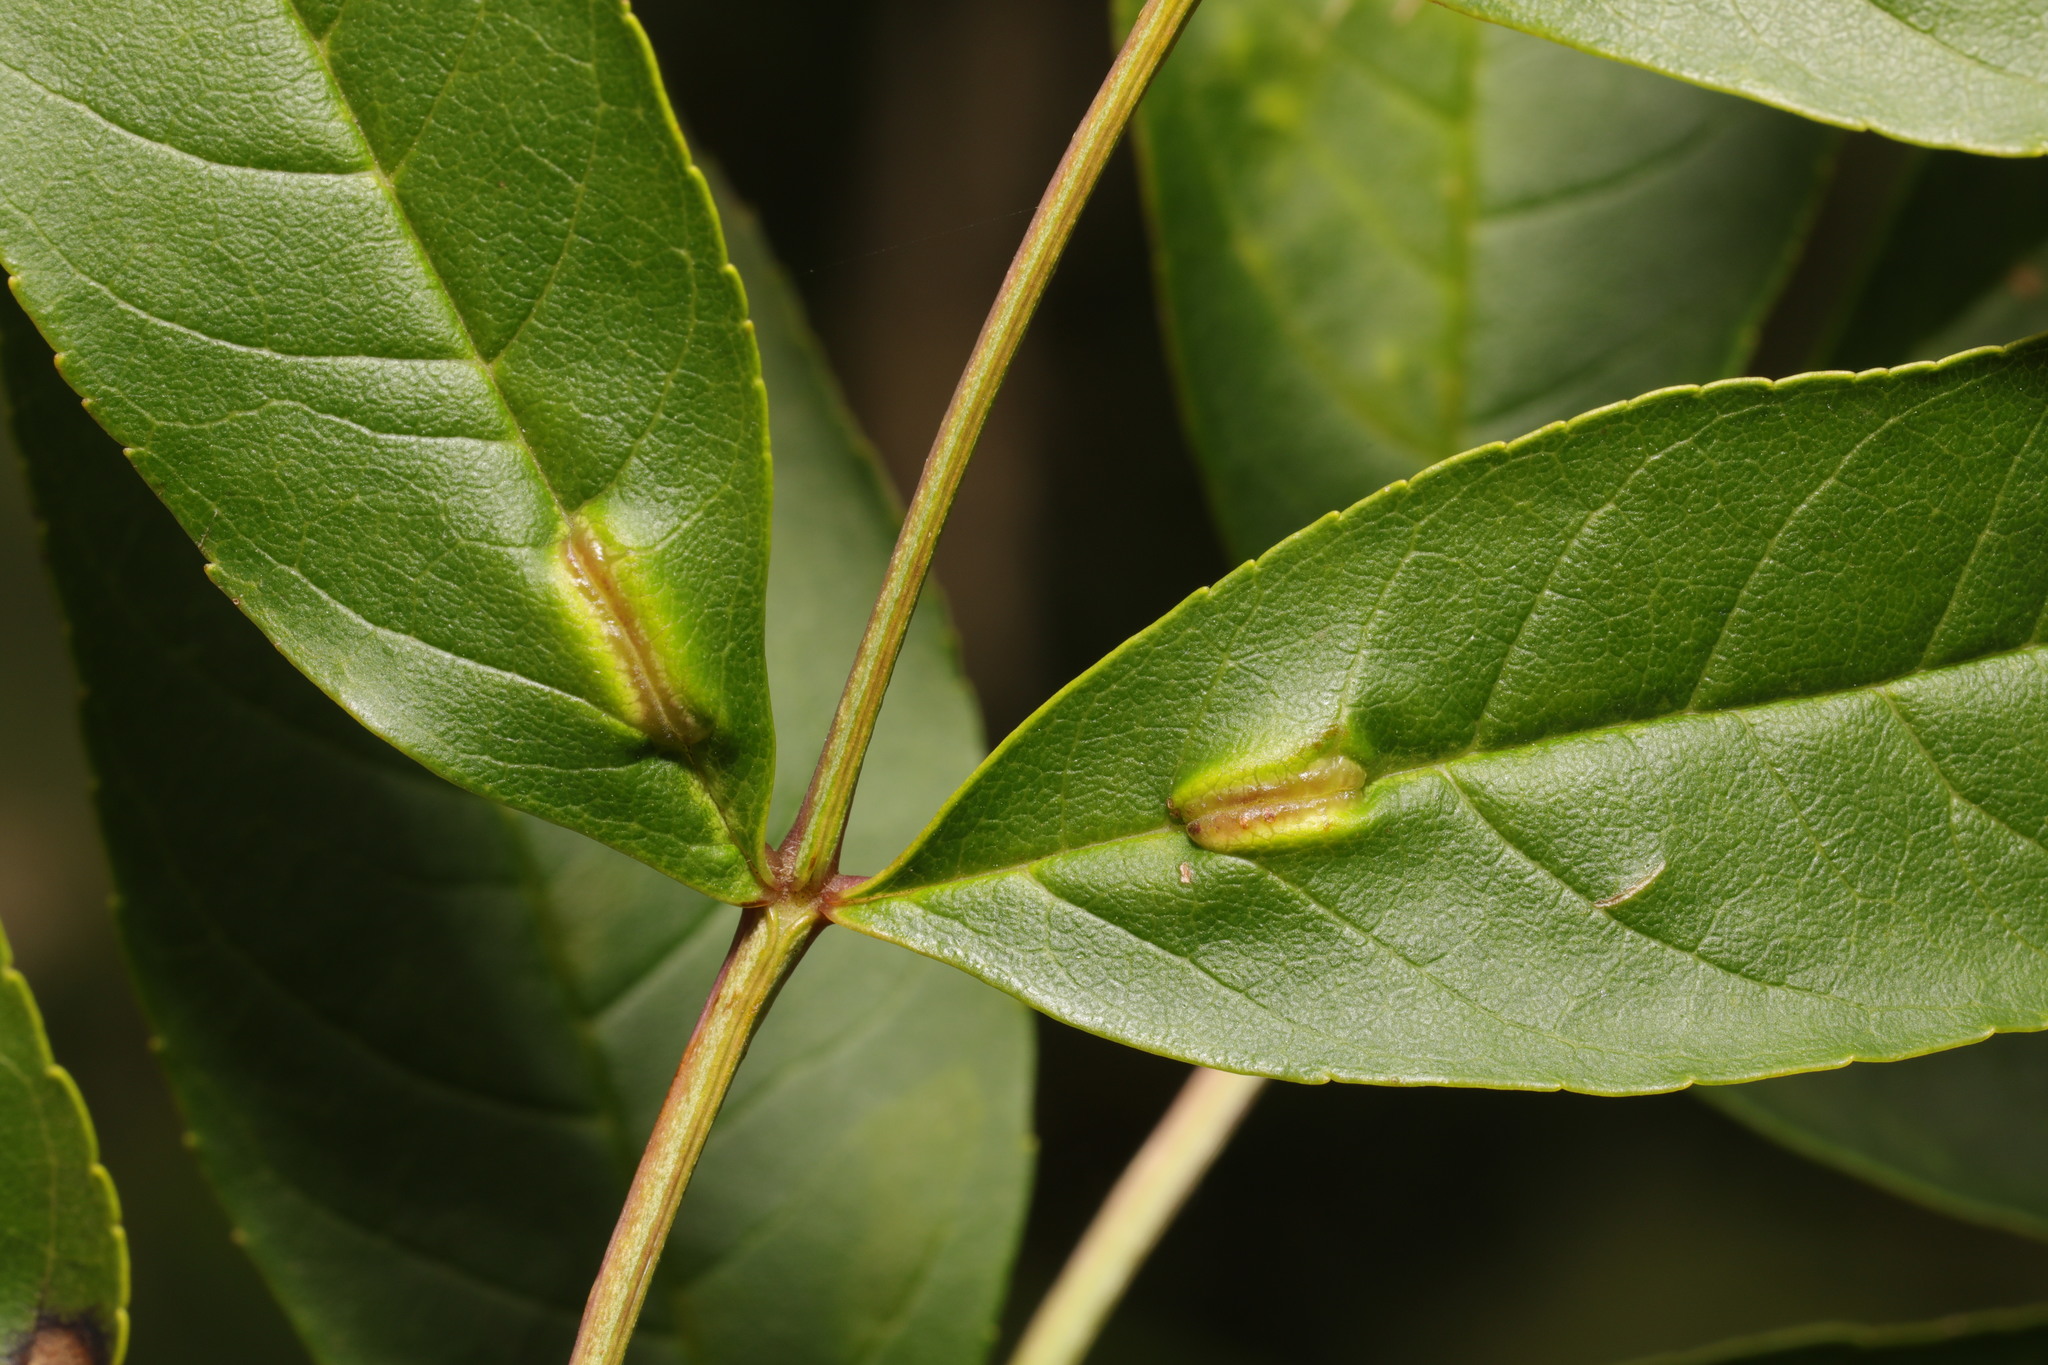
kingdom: Animalia
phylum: Arthropoda
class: Insecta
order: Diptera
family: Cecidomyiidae
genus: Dasineura
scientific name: Dasineura fraxini
